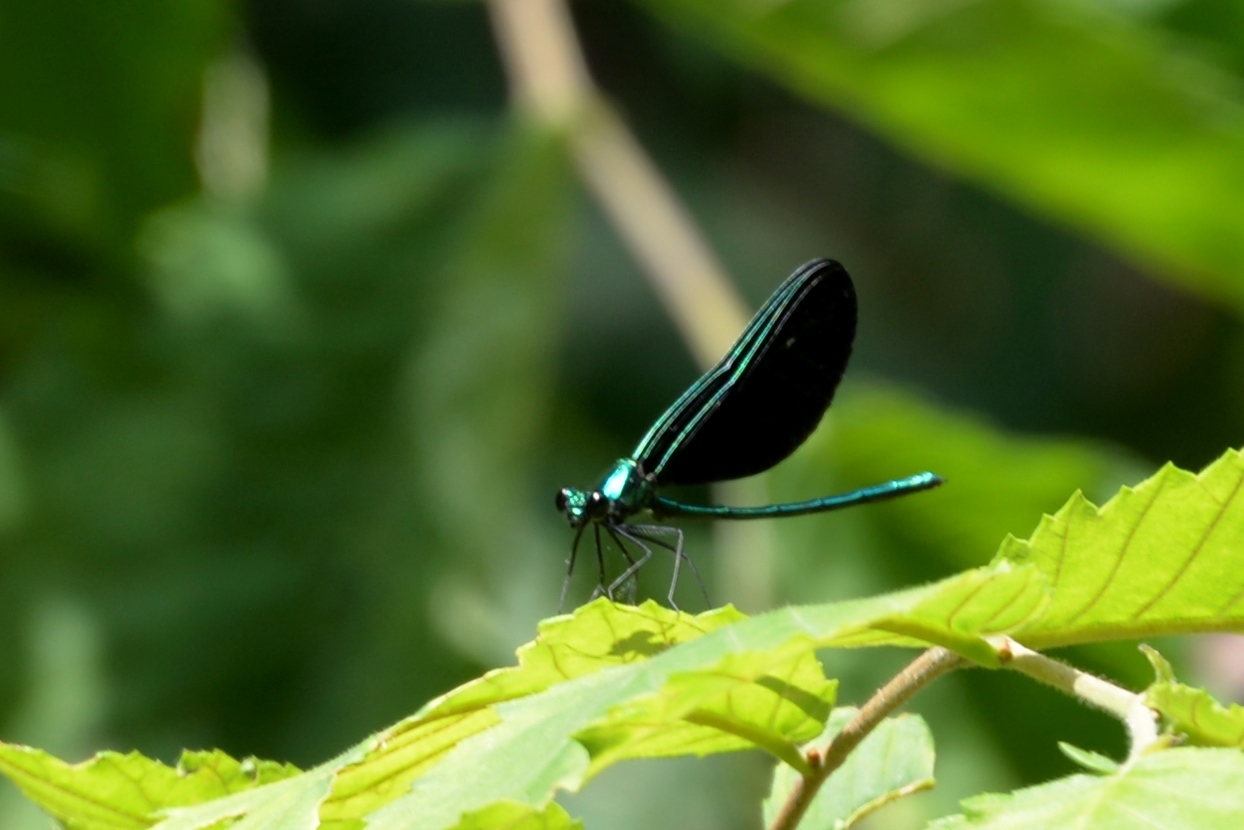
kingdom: Animalia
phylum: Arthropoda
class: Insecta
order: Odonata
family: Calopterygidae
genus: Calopteryx
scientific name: Calopteryx maculata
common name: Ebony jewelwing
